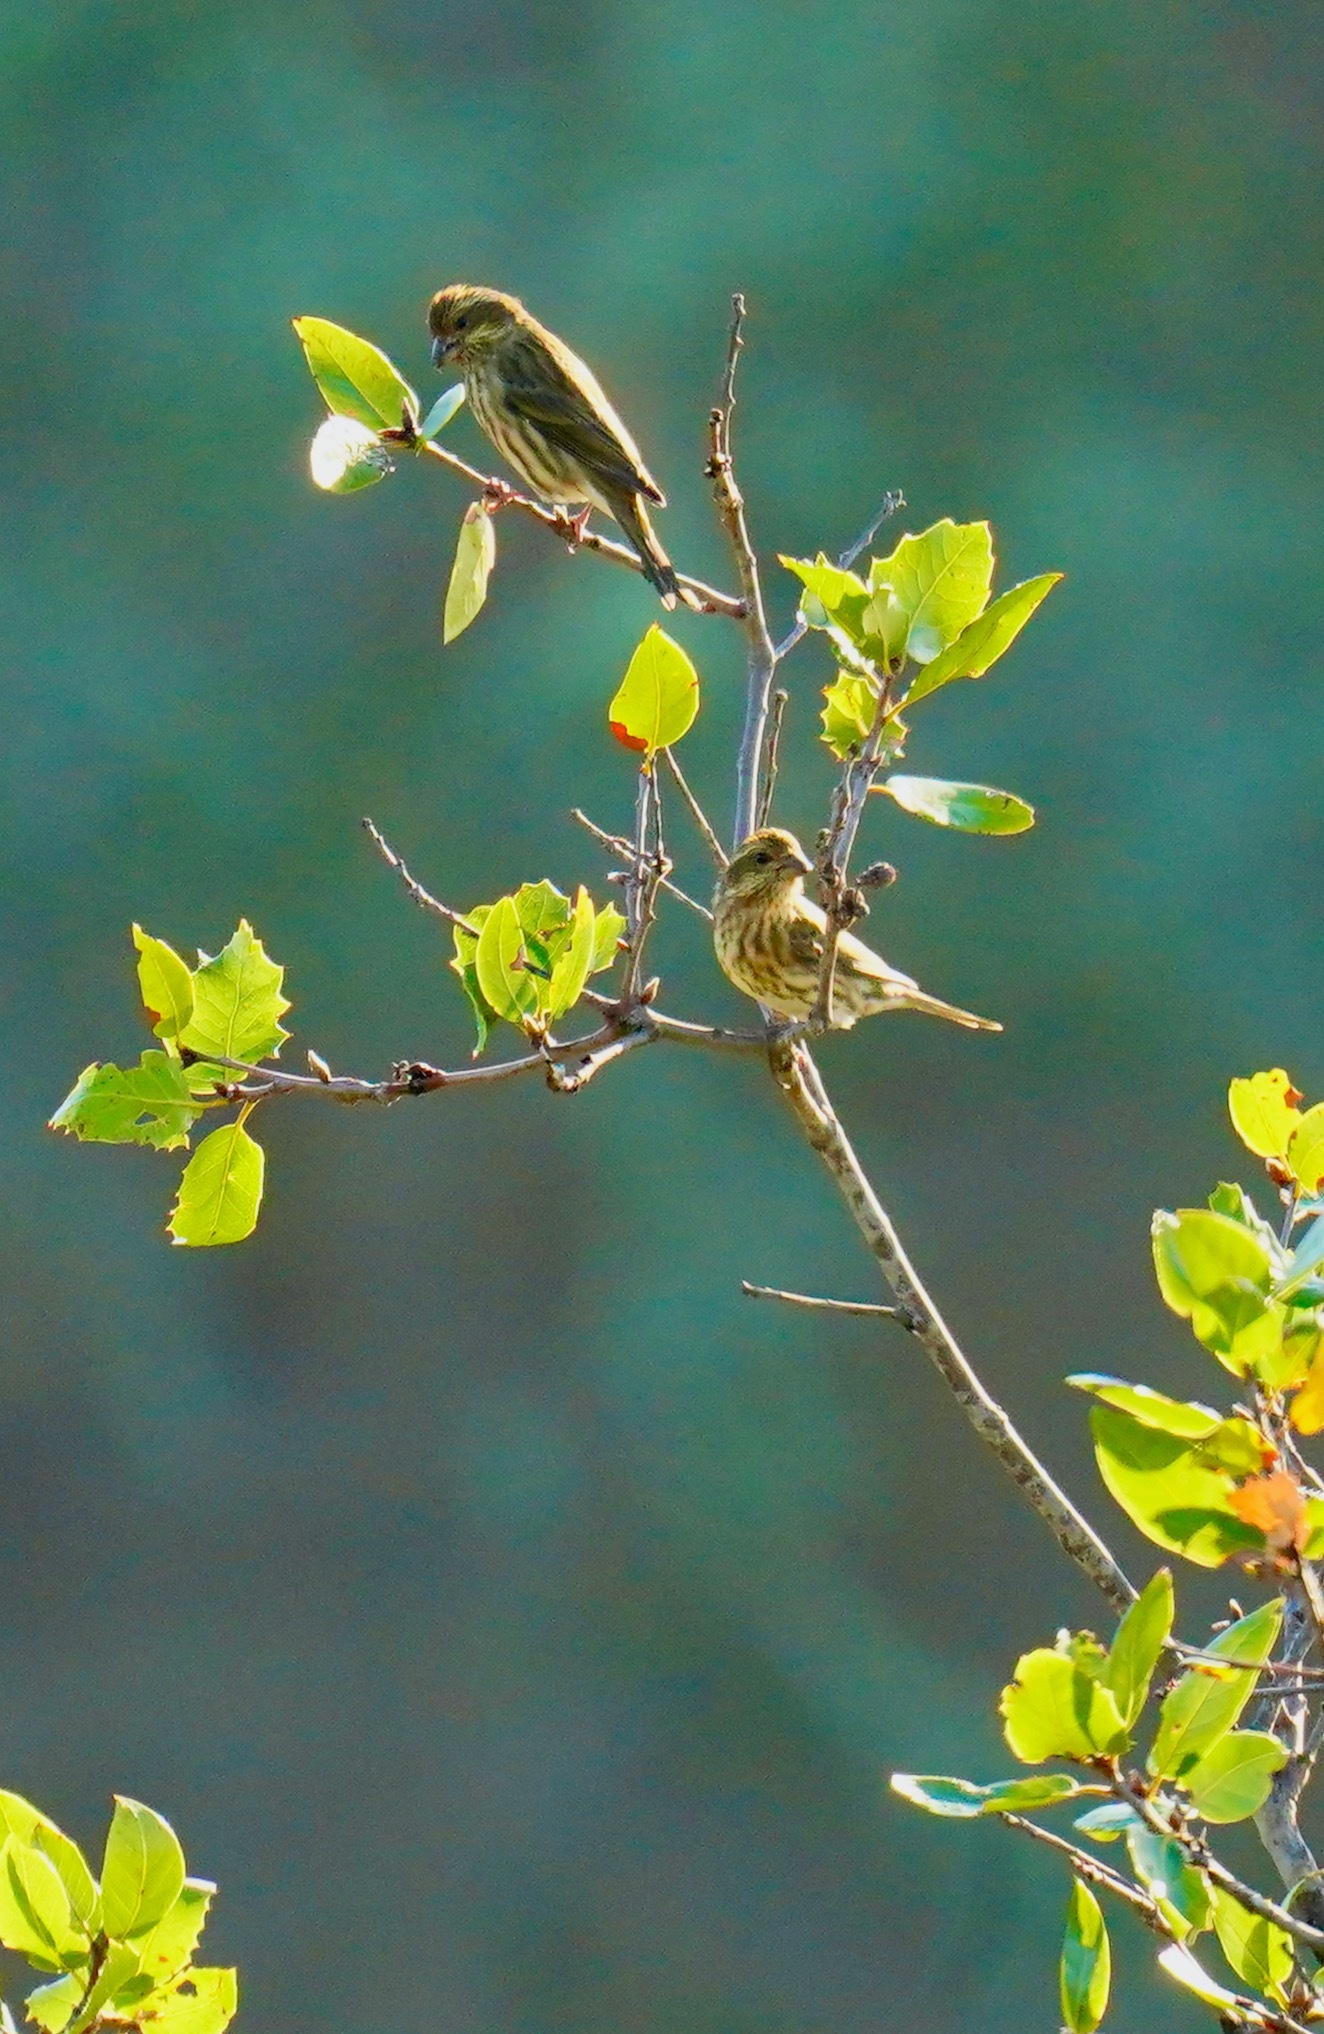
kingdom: Animalia
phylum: Chordata
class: Aves
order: Passeriformes
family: Fringillidae
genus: Haemorhous
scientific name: Haemorhous purpureus
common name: Purple finch
